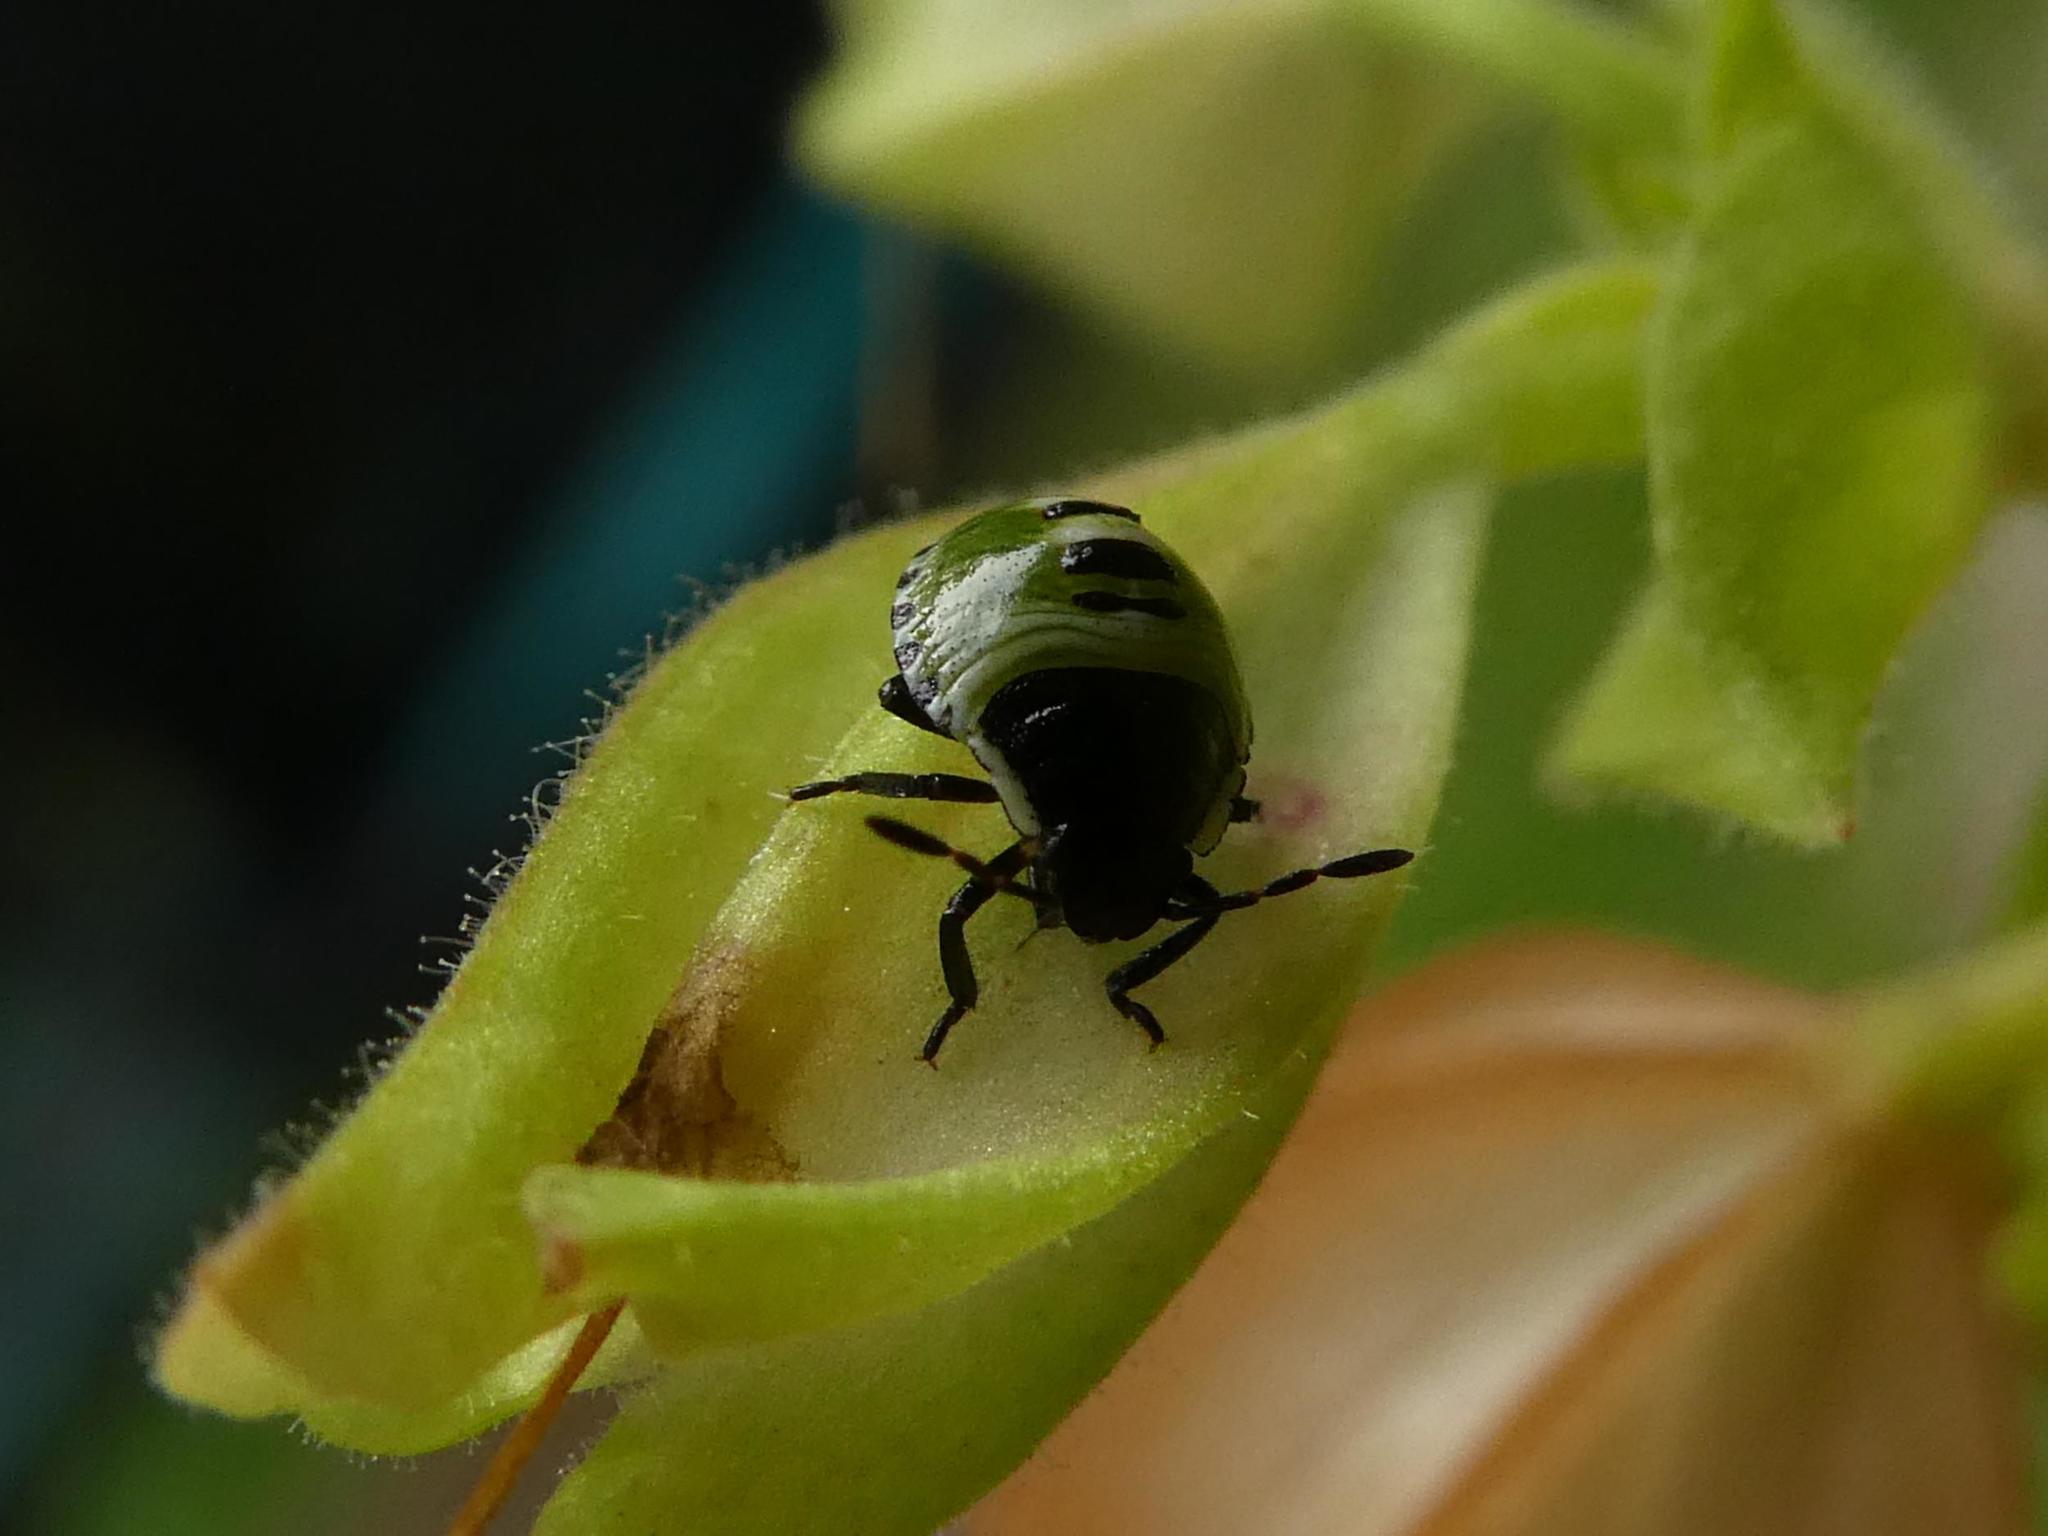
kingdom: Animalia
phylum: Arthropoda
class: Insecta
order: Hemiptera
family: Pentatomidae
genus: Palomena
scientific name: Palomena prasina
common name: Green shieldbug
